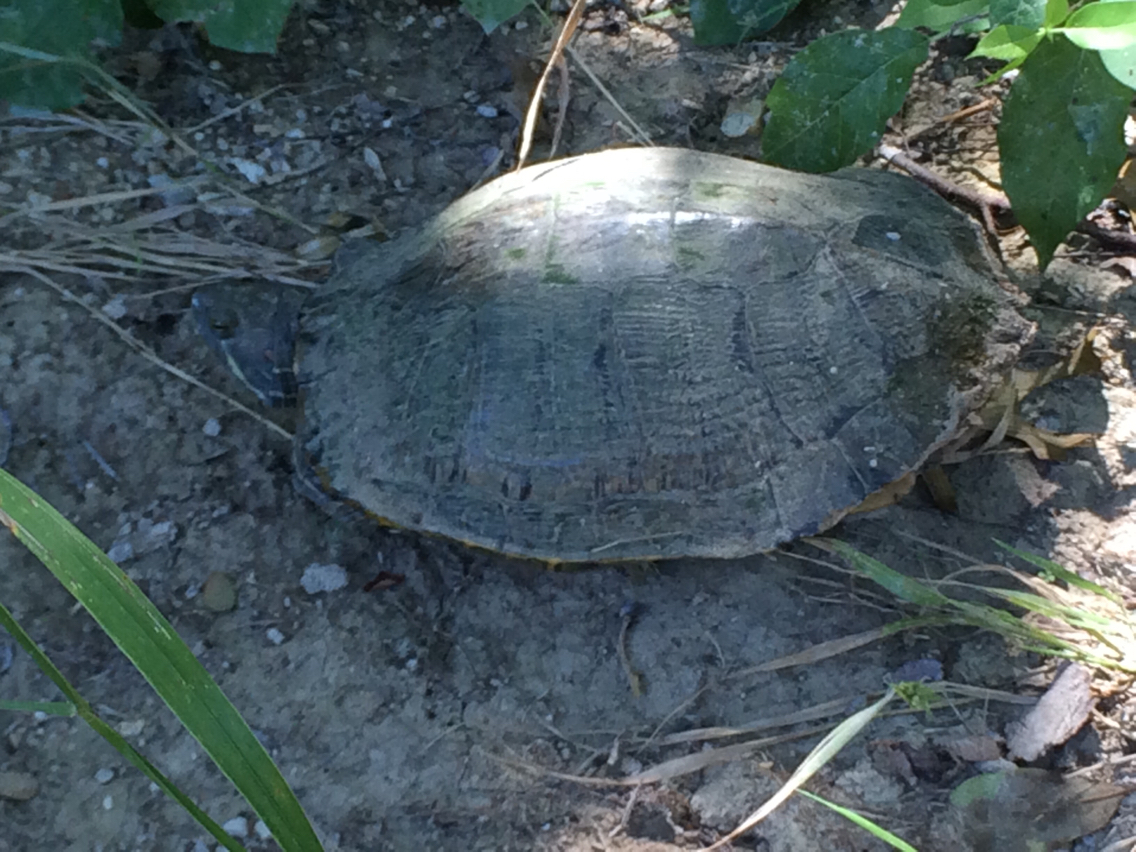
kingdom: Animalia
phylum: Chordata
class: Testudines
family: Emydidae
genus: Trachemys
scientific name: Trachemys scripta
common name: Slider
